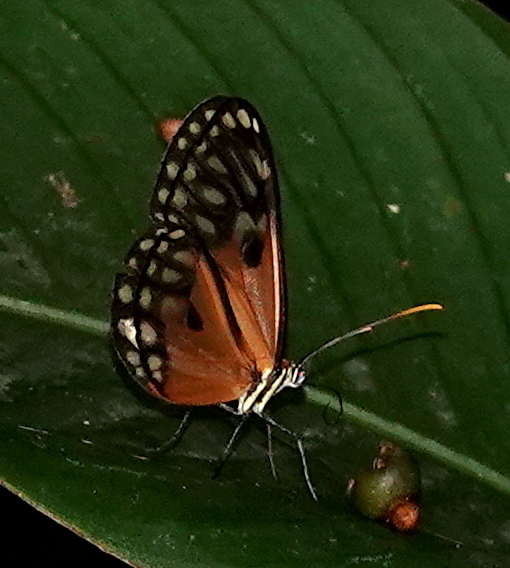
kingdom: Animalia
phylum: Arthropoda
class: Insecta
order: Lepidoptera
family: Nymphalidae
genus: Napeogenes
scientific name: Napeogenes stella
